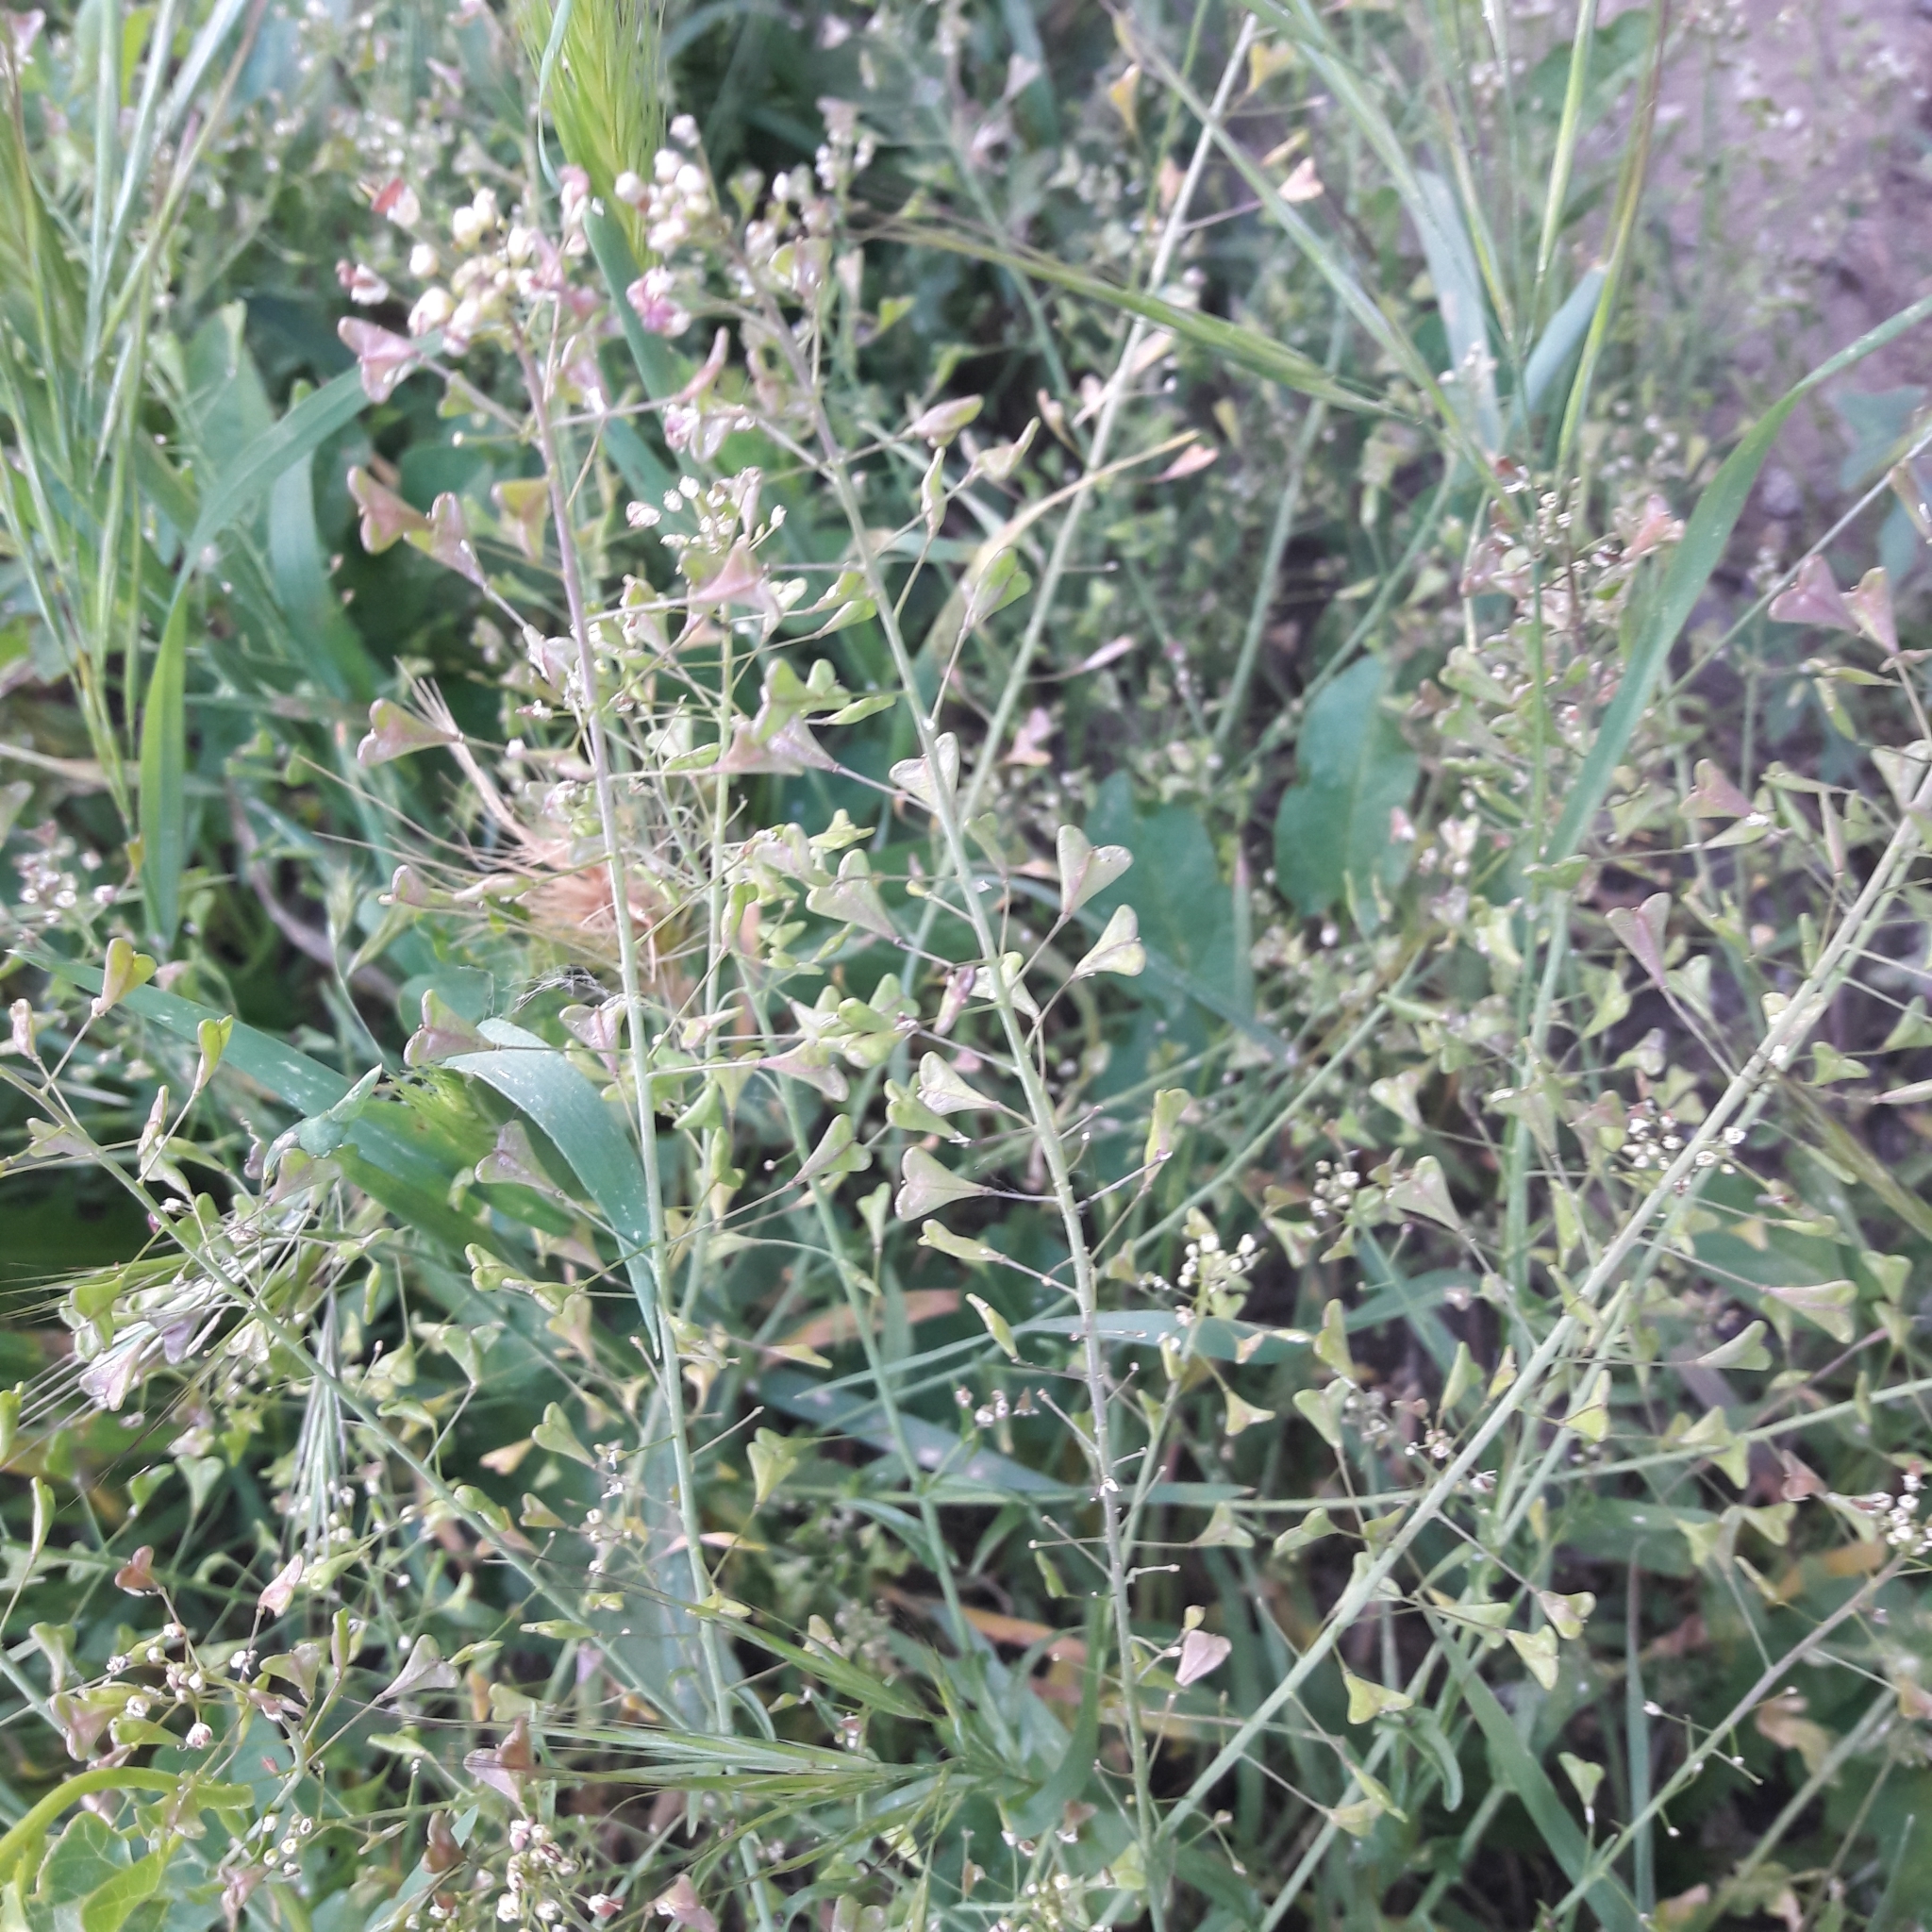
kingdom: Plantae
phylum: Tracheophyta
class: Magnoliopsida
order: Brassicales
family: Brassicaceae
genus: Capsella
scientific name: Capsella bursa-pastoris
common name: Shepherd's purse
